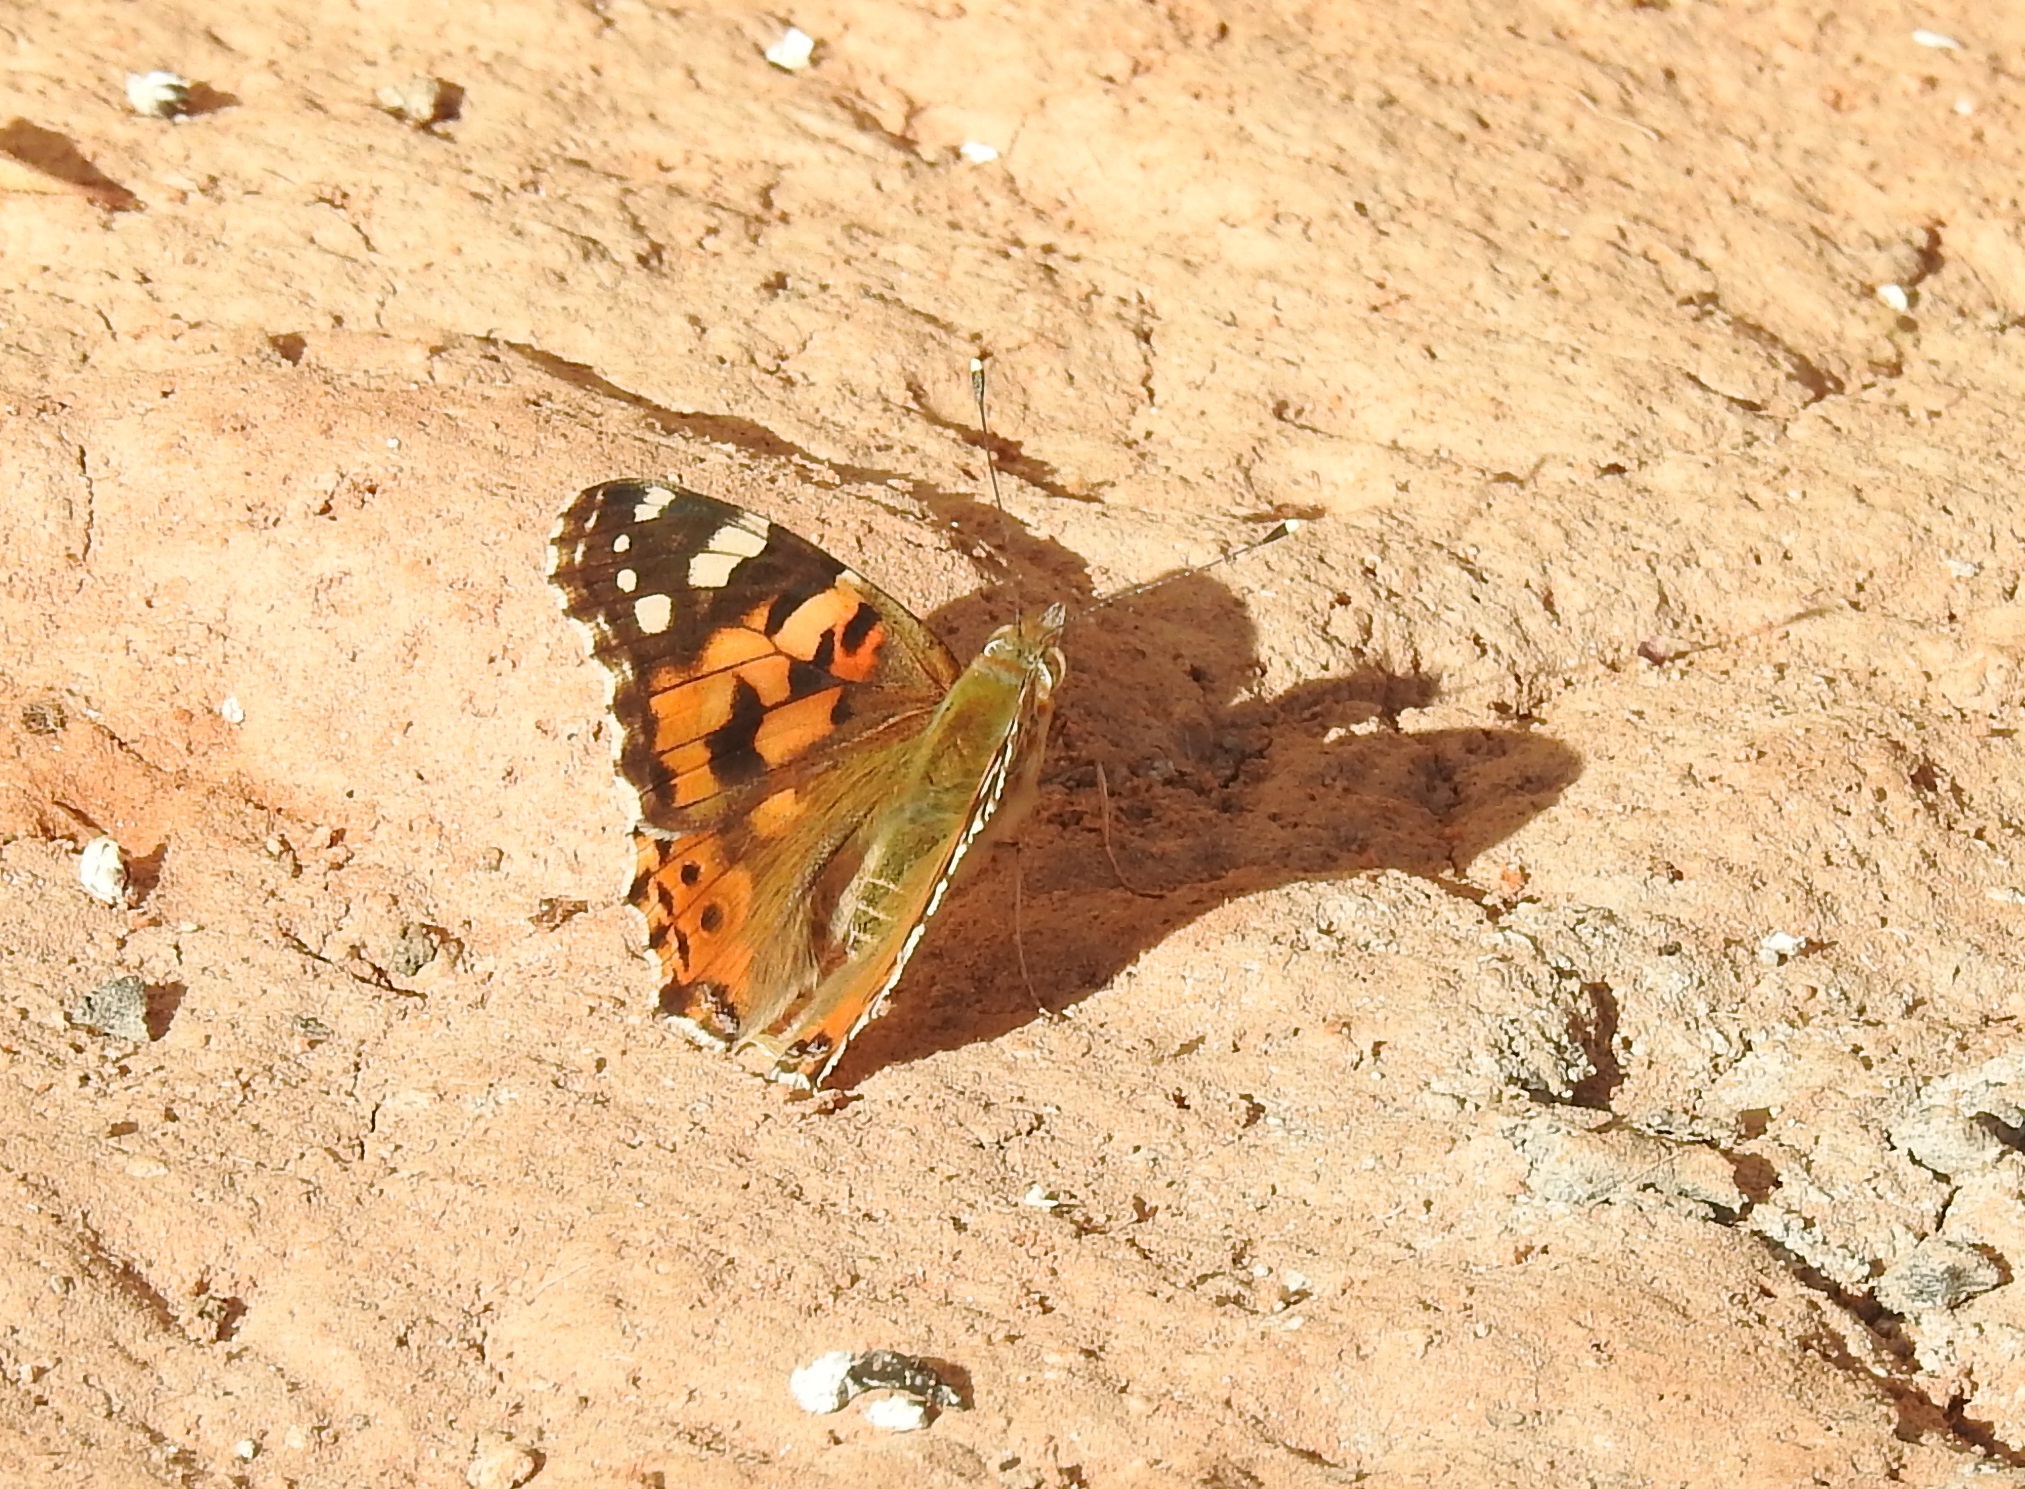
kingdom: Animalia
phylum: Arthropoda
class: Insecta
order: Lepidoptera
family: Nymphalidae
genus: Vanessa
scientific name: Vanessa cardui
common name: Painted lady
